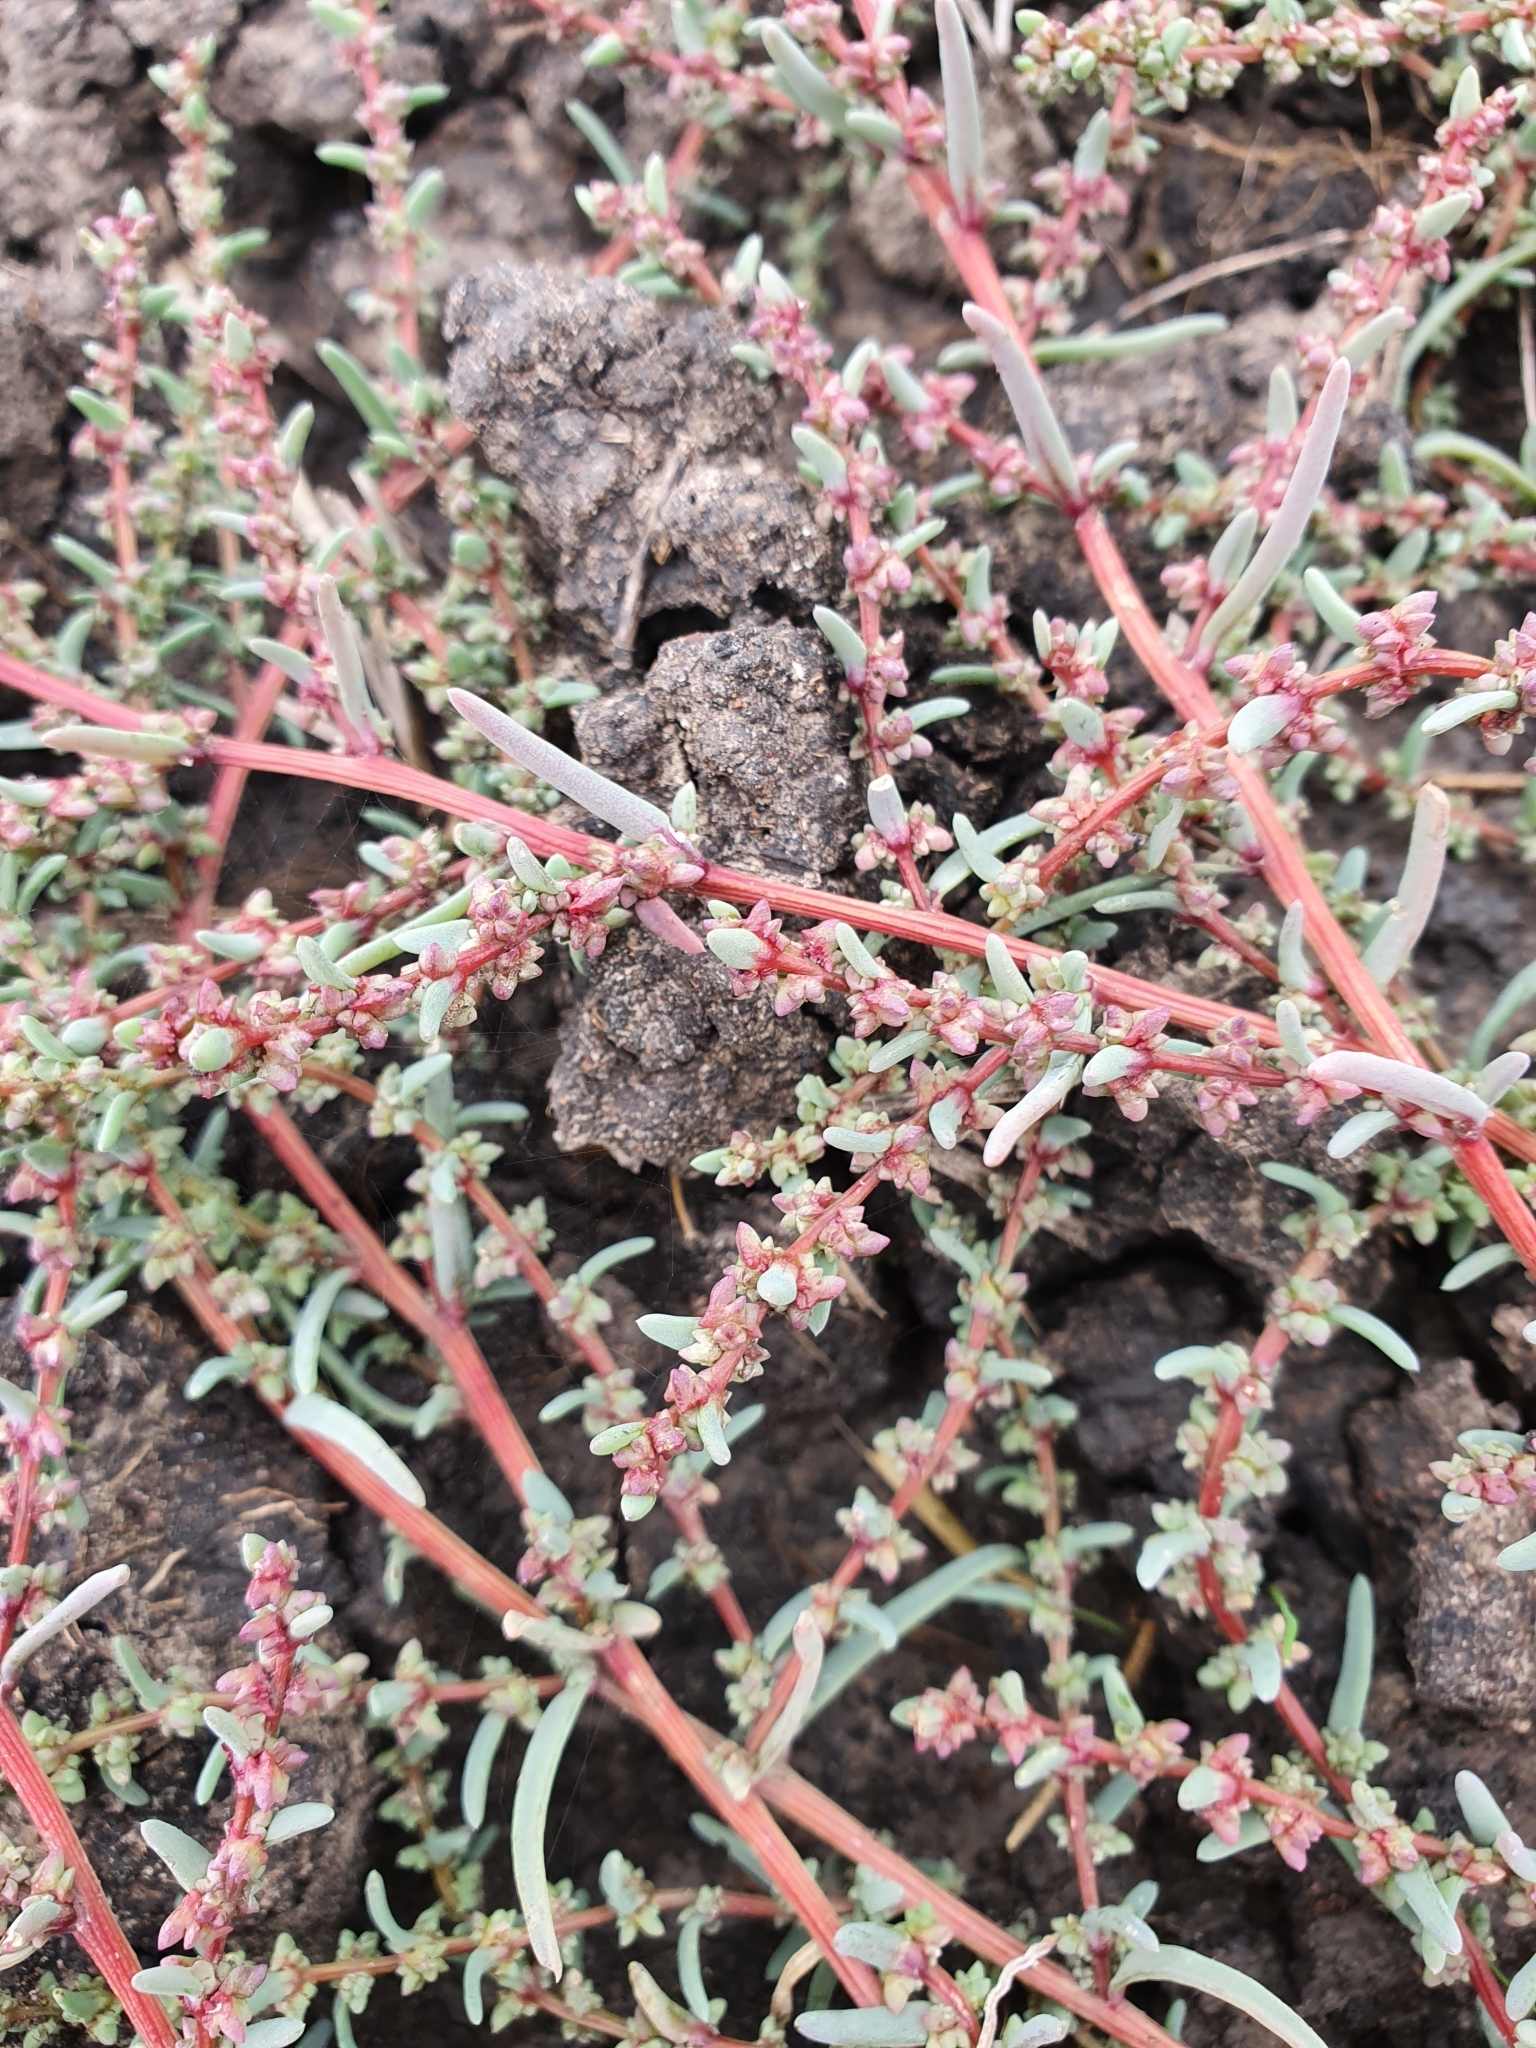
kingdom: Plantae
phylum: Tracheophyta
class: Magnoliopsida
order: Caryophyllales
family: Amaranthaceae
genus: Suaeda
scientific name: Suaeda acuminata
